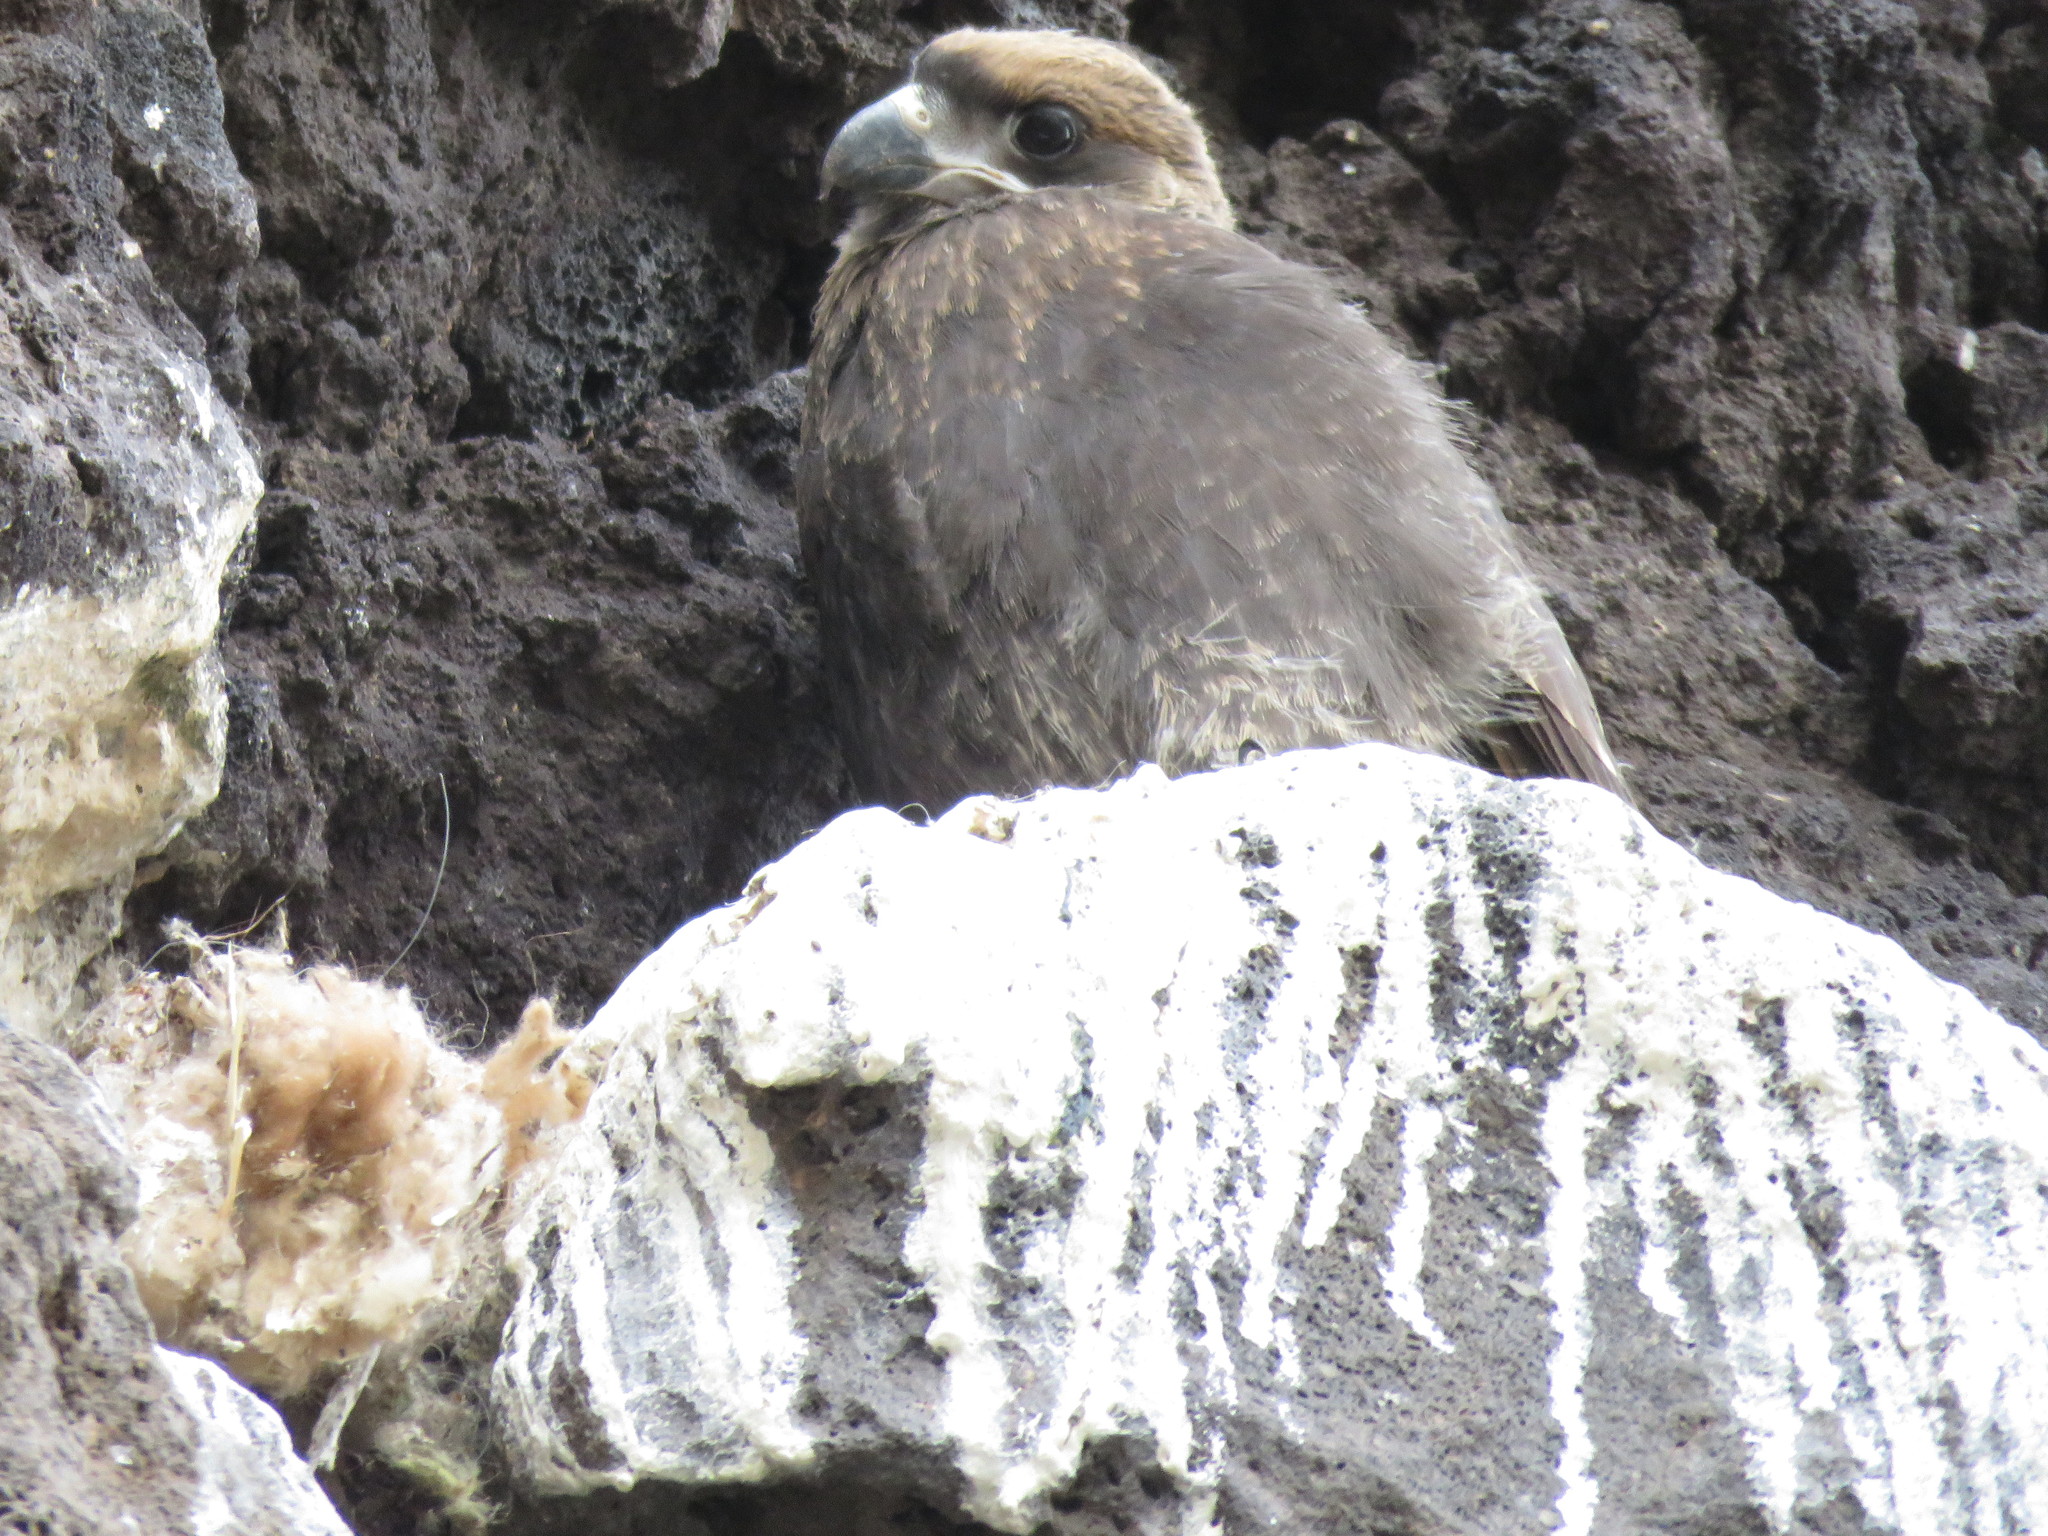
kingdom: Animalia
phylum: Chordata
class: Aves
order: Falconiformes
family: Falconidae
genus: Daptrius
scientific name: Daptrius
